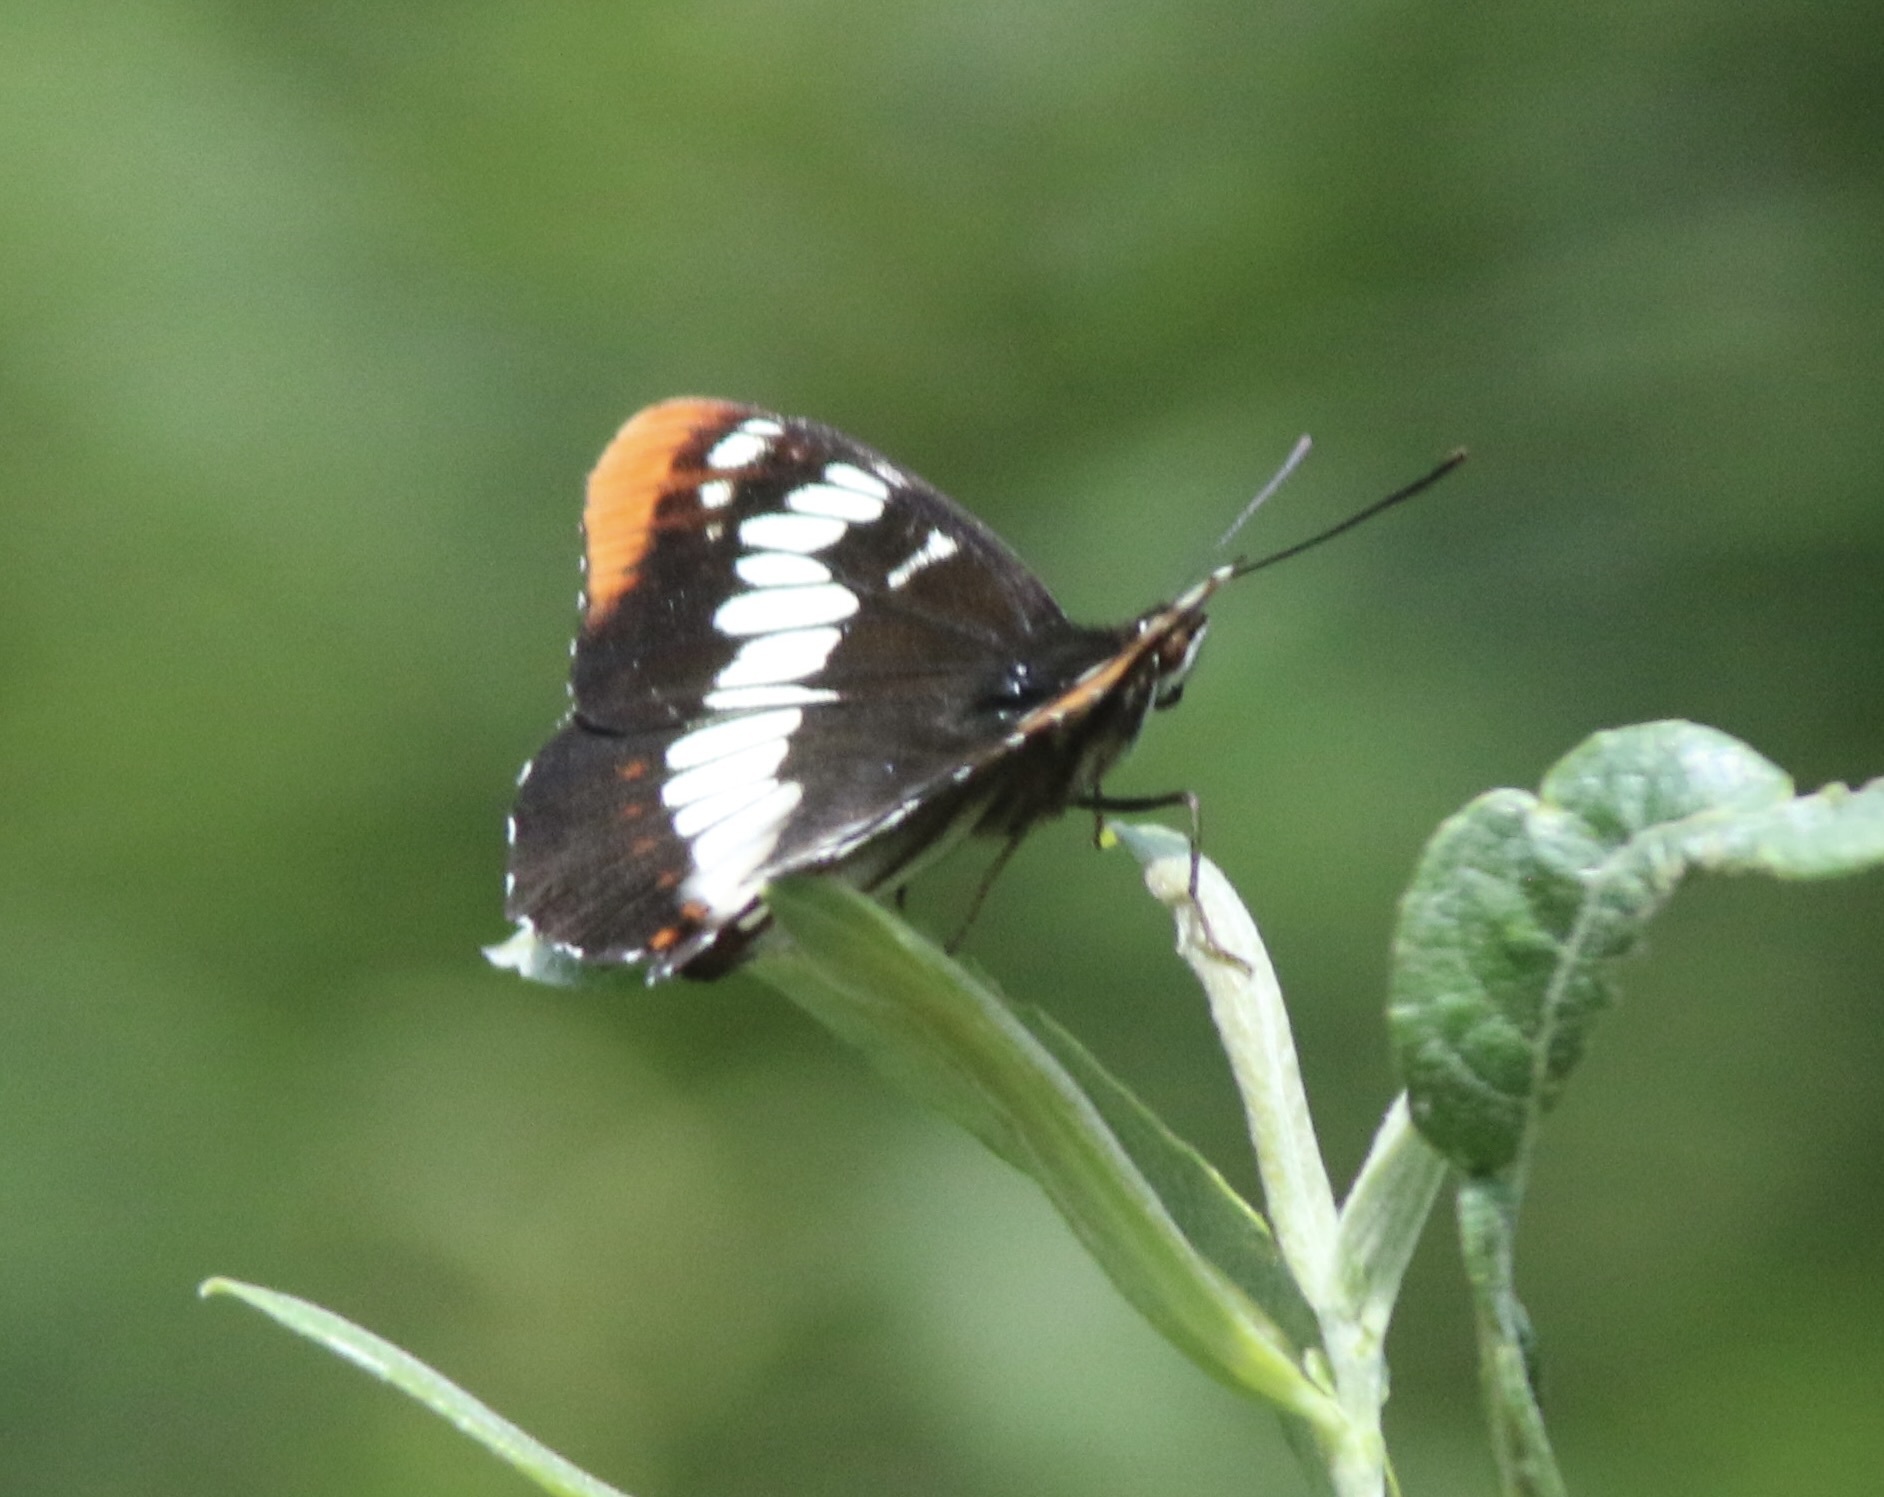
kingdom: Animalia
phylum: Arthropoda
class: Insecta
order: Lepidoptera
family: Nymphalidae
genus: Limenitis
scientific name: Limenitis lorquini
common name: Lorquin's admiral
